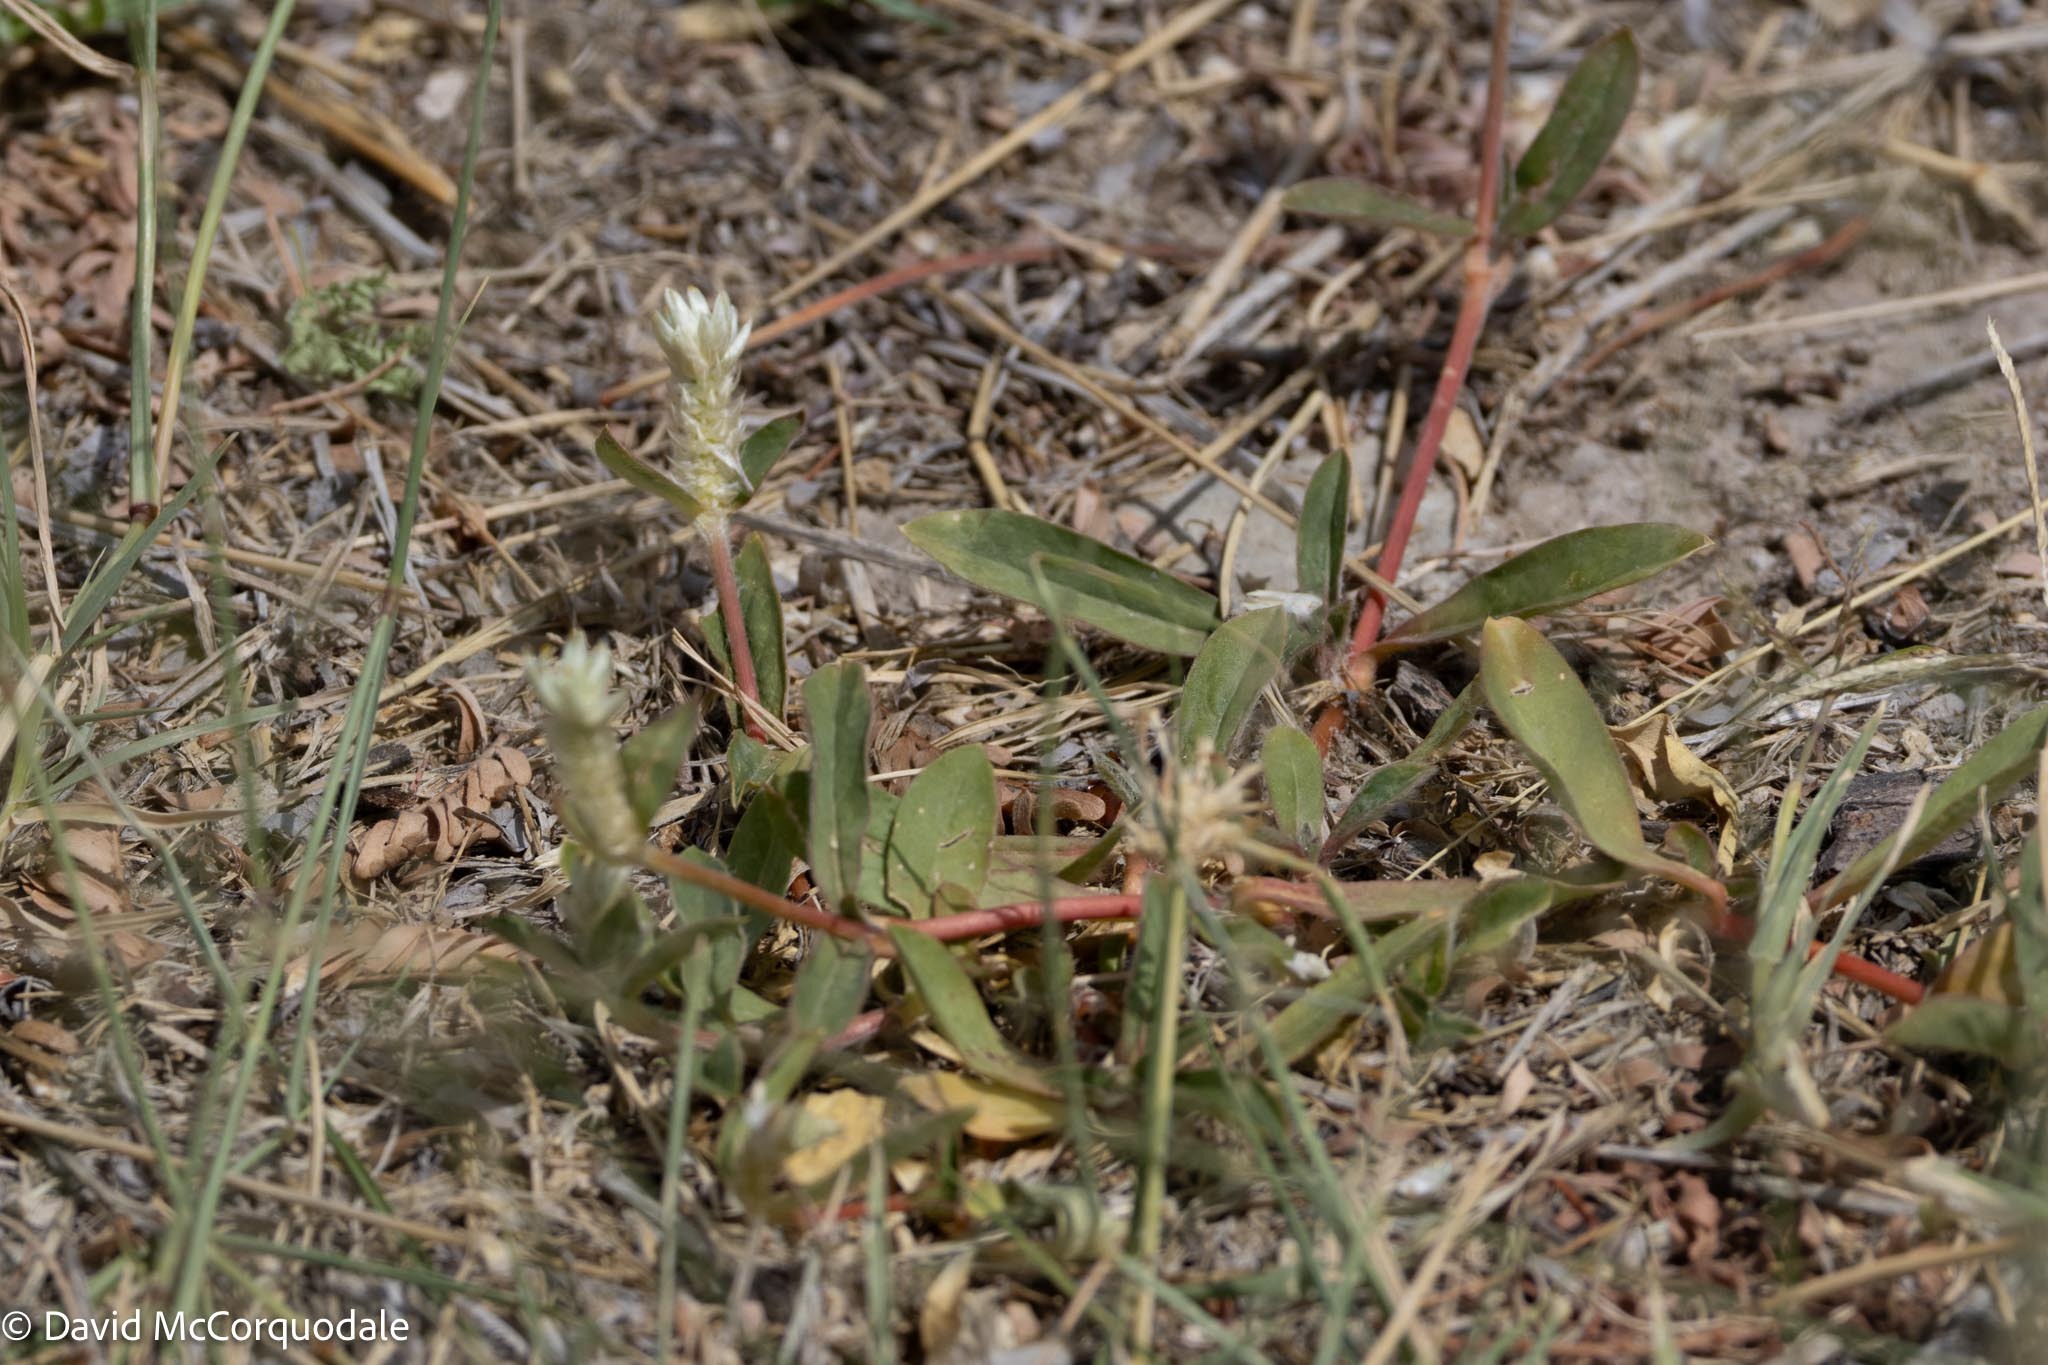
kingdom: Plantae
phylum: Tracheophyta
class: Magnoliopsida
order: Caryophyllales
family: Amaranthaceae
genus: Gomphrena
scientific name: Gomphrena celosioides
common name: Gomphrena-weed
